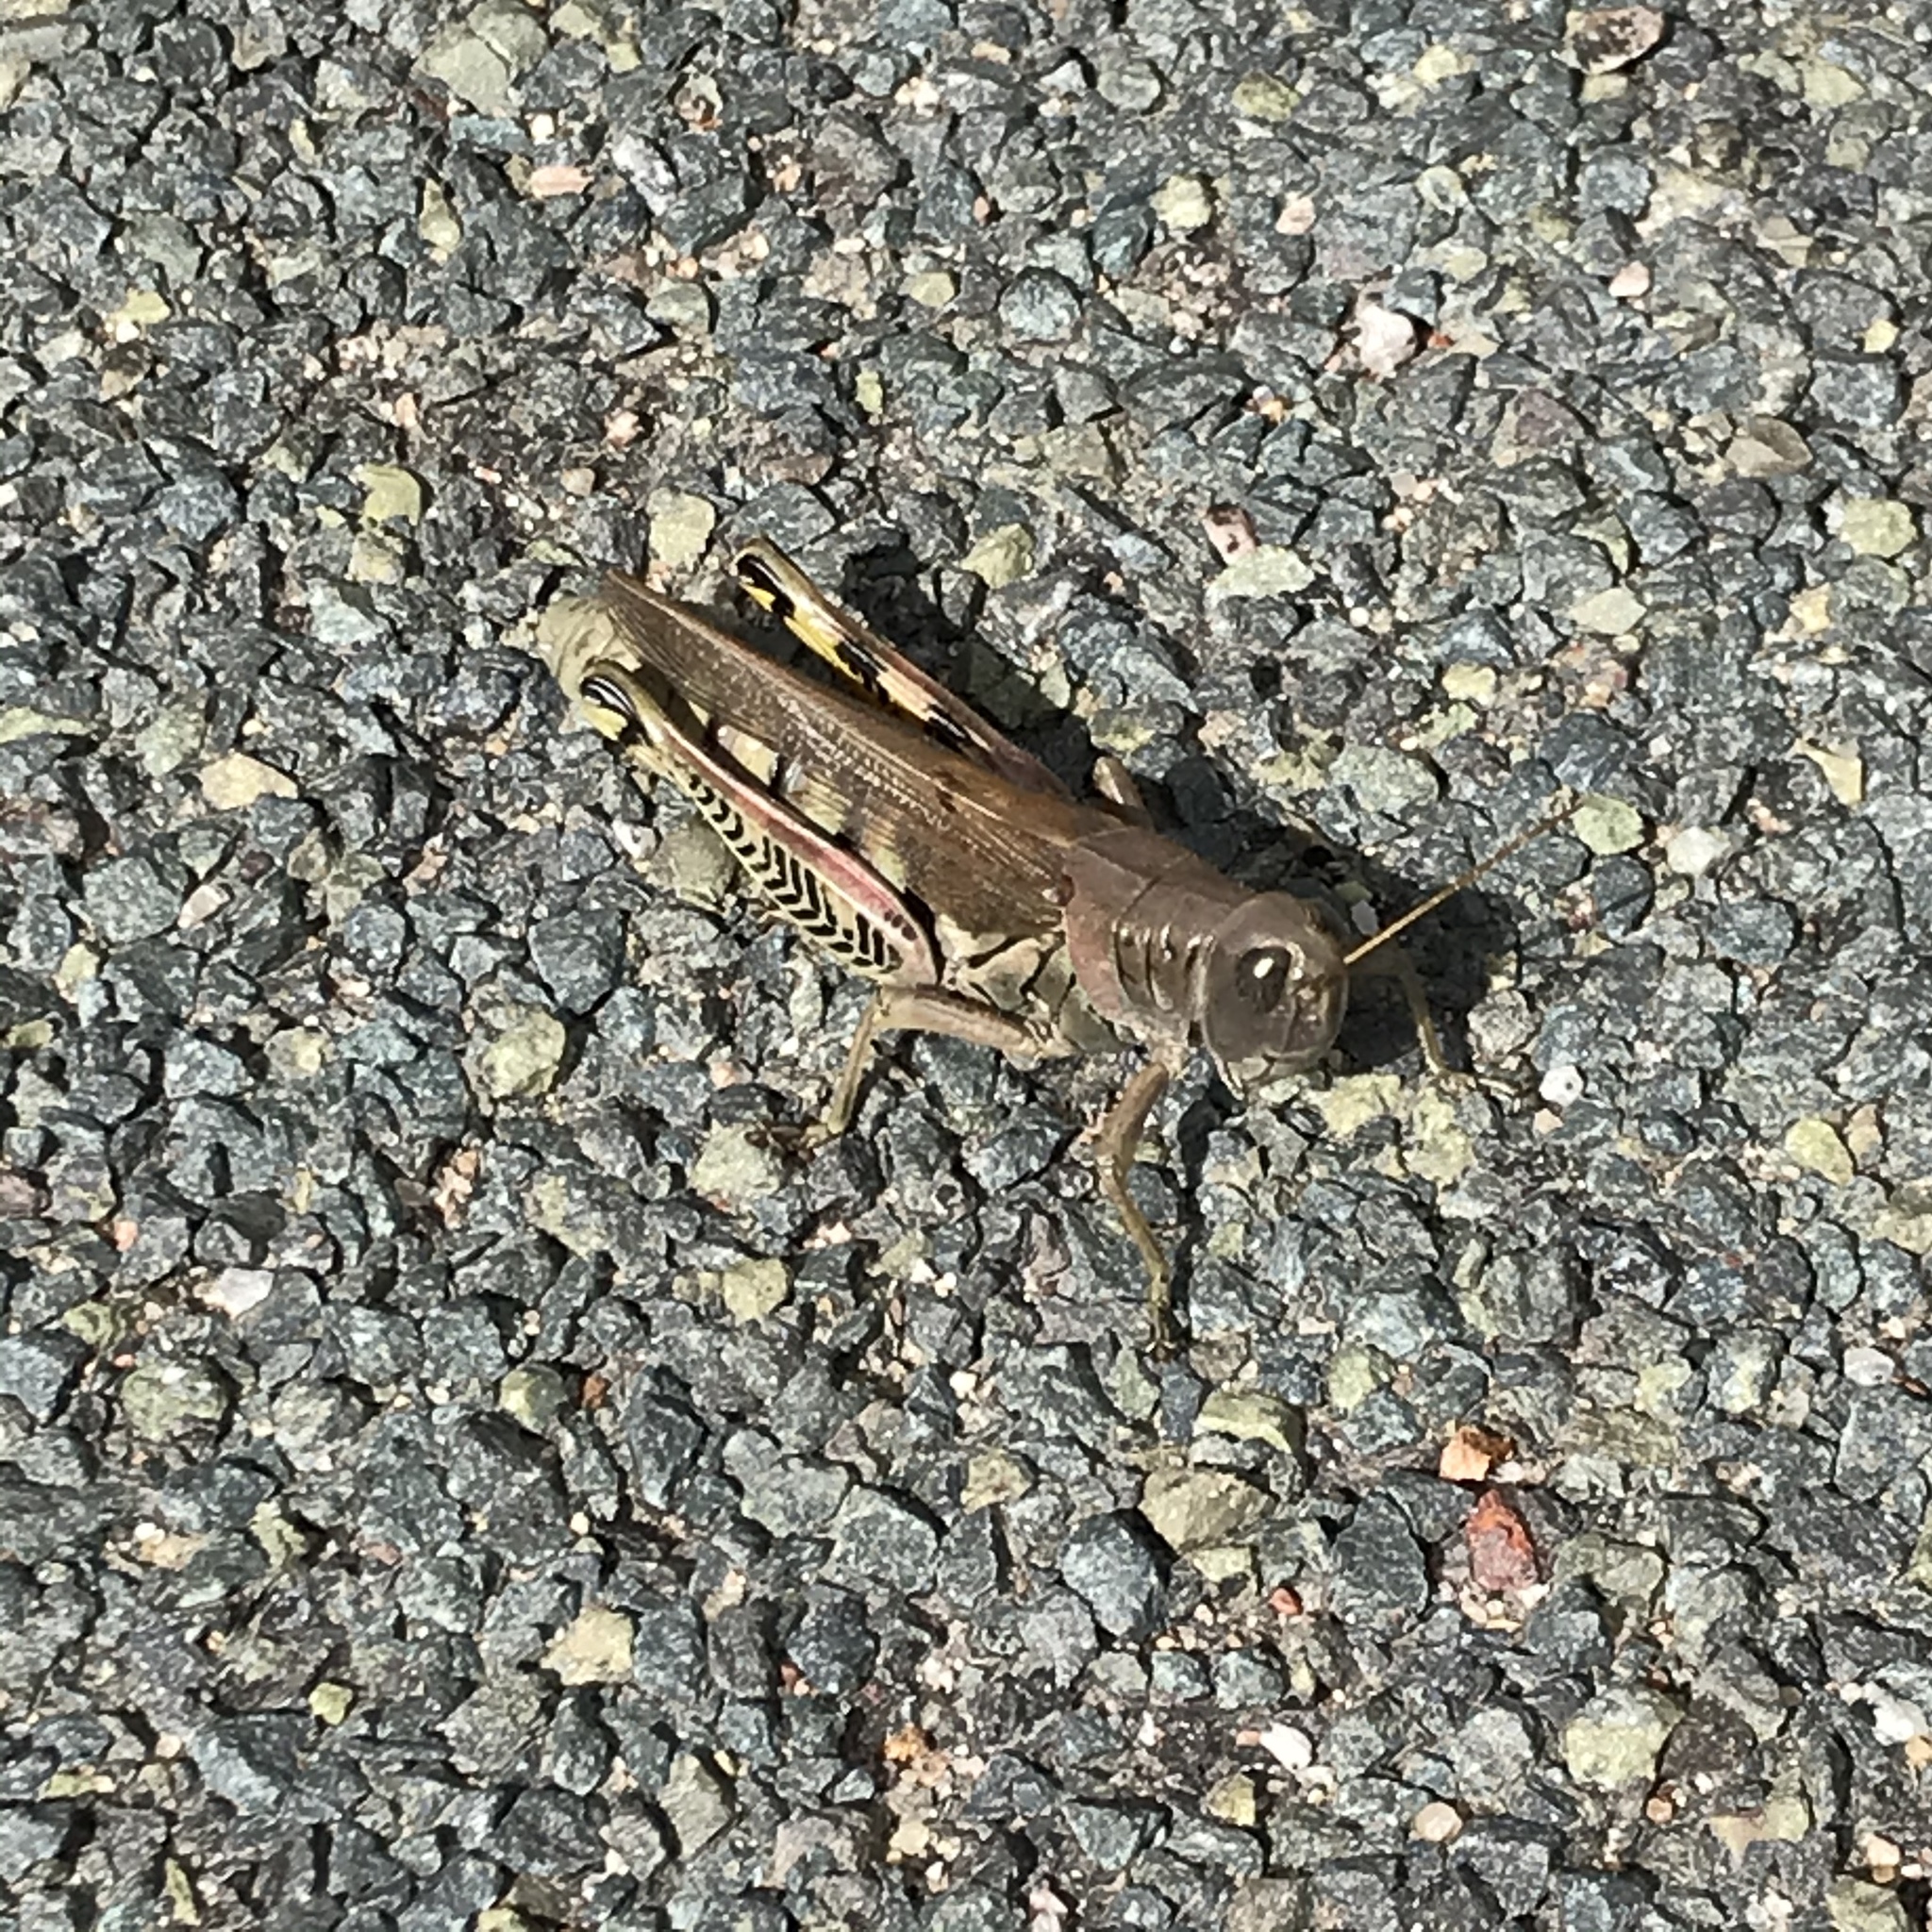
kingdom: Animalia
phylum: Arthropoda
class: Insecta
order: Orthoptera
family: Acrididae
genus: Melanoplus
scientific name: Melanoplus differentialis
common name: Differential grasshopper
